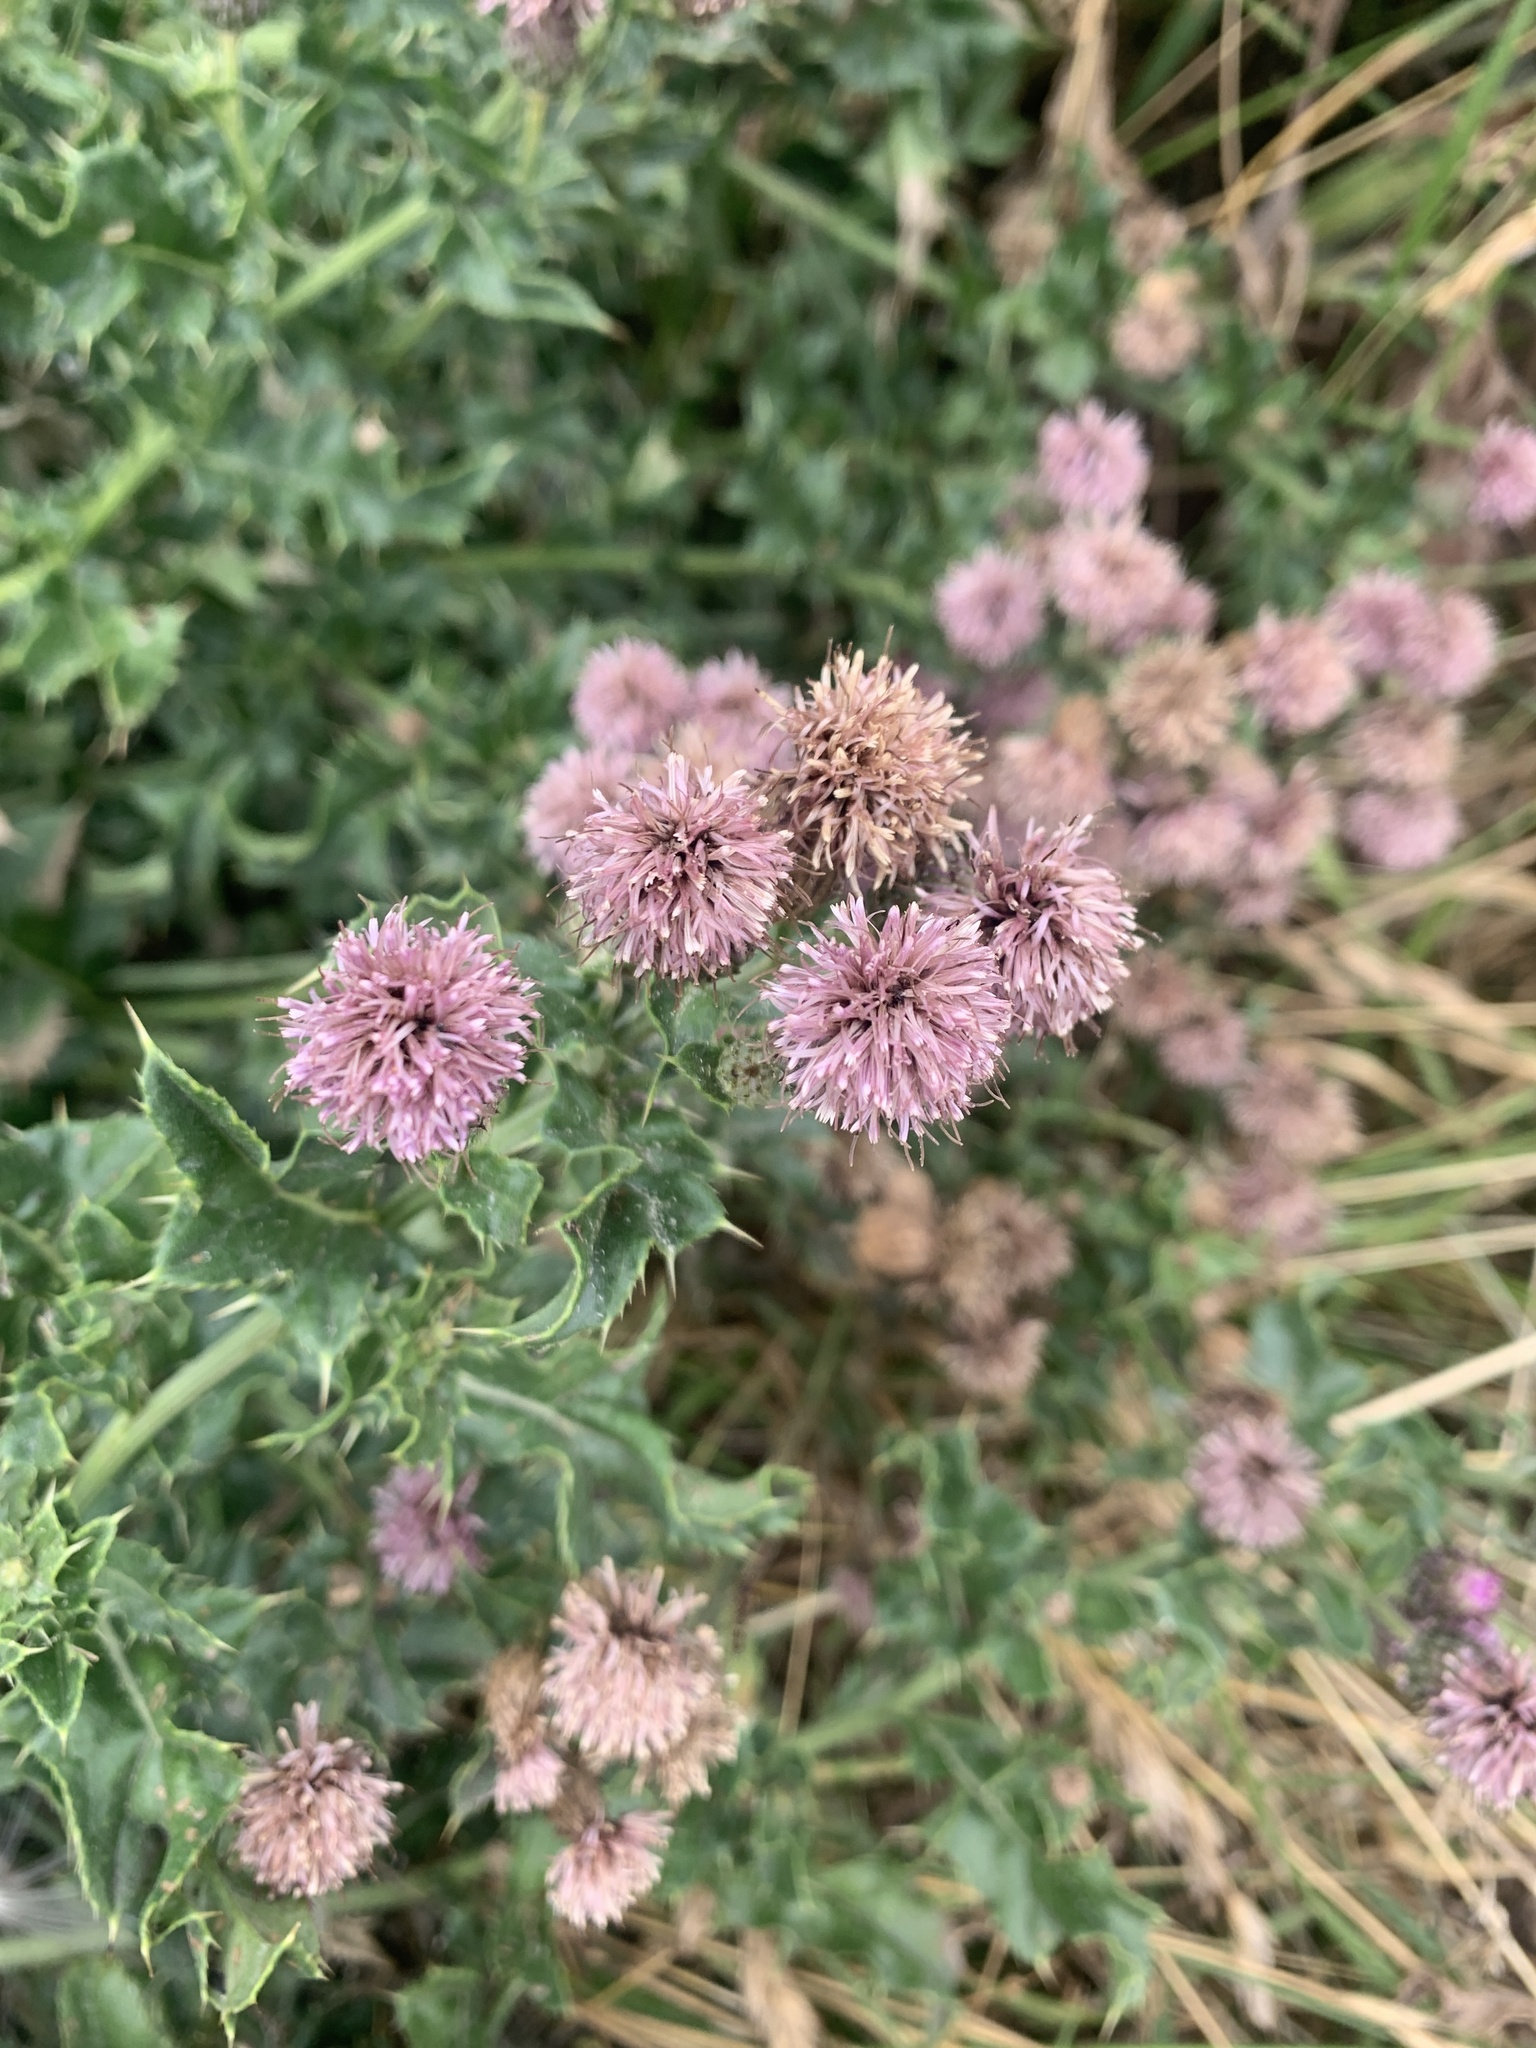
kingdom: Plantae
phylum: Tracheophyta
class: Magnoliopsida
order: Fabales
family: Fabaceae
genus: Trifolium
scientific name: Trifolium pratense
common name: Red clover
